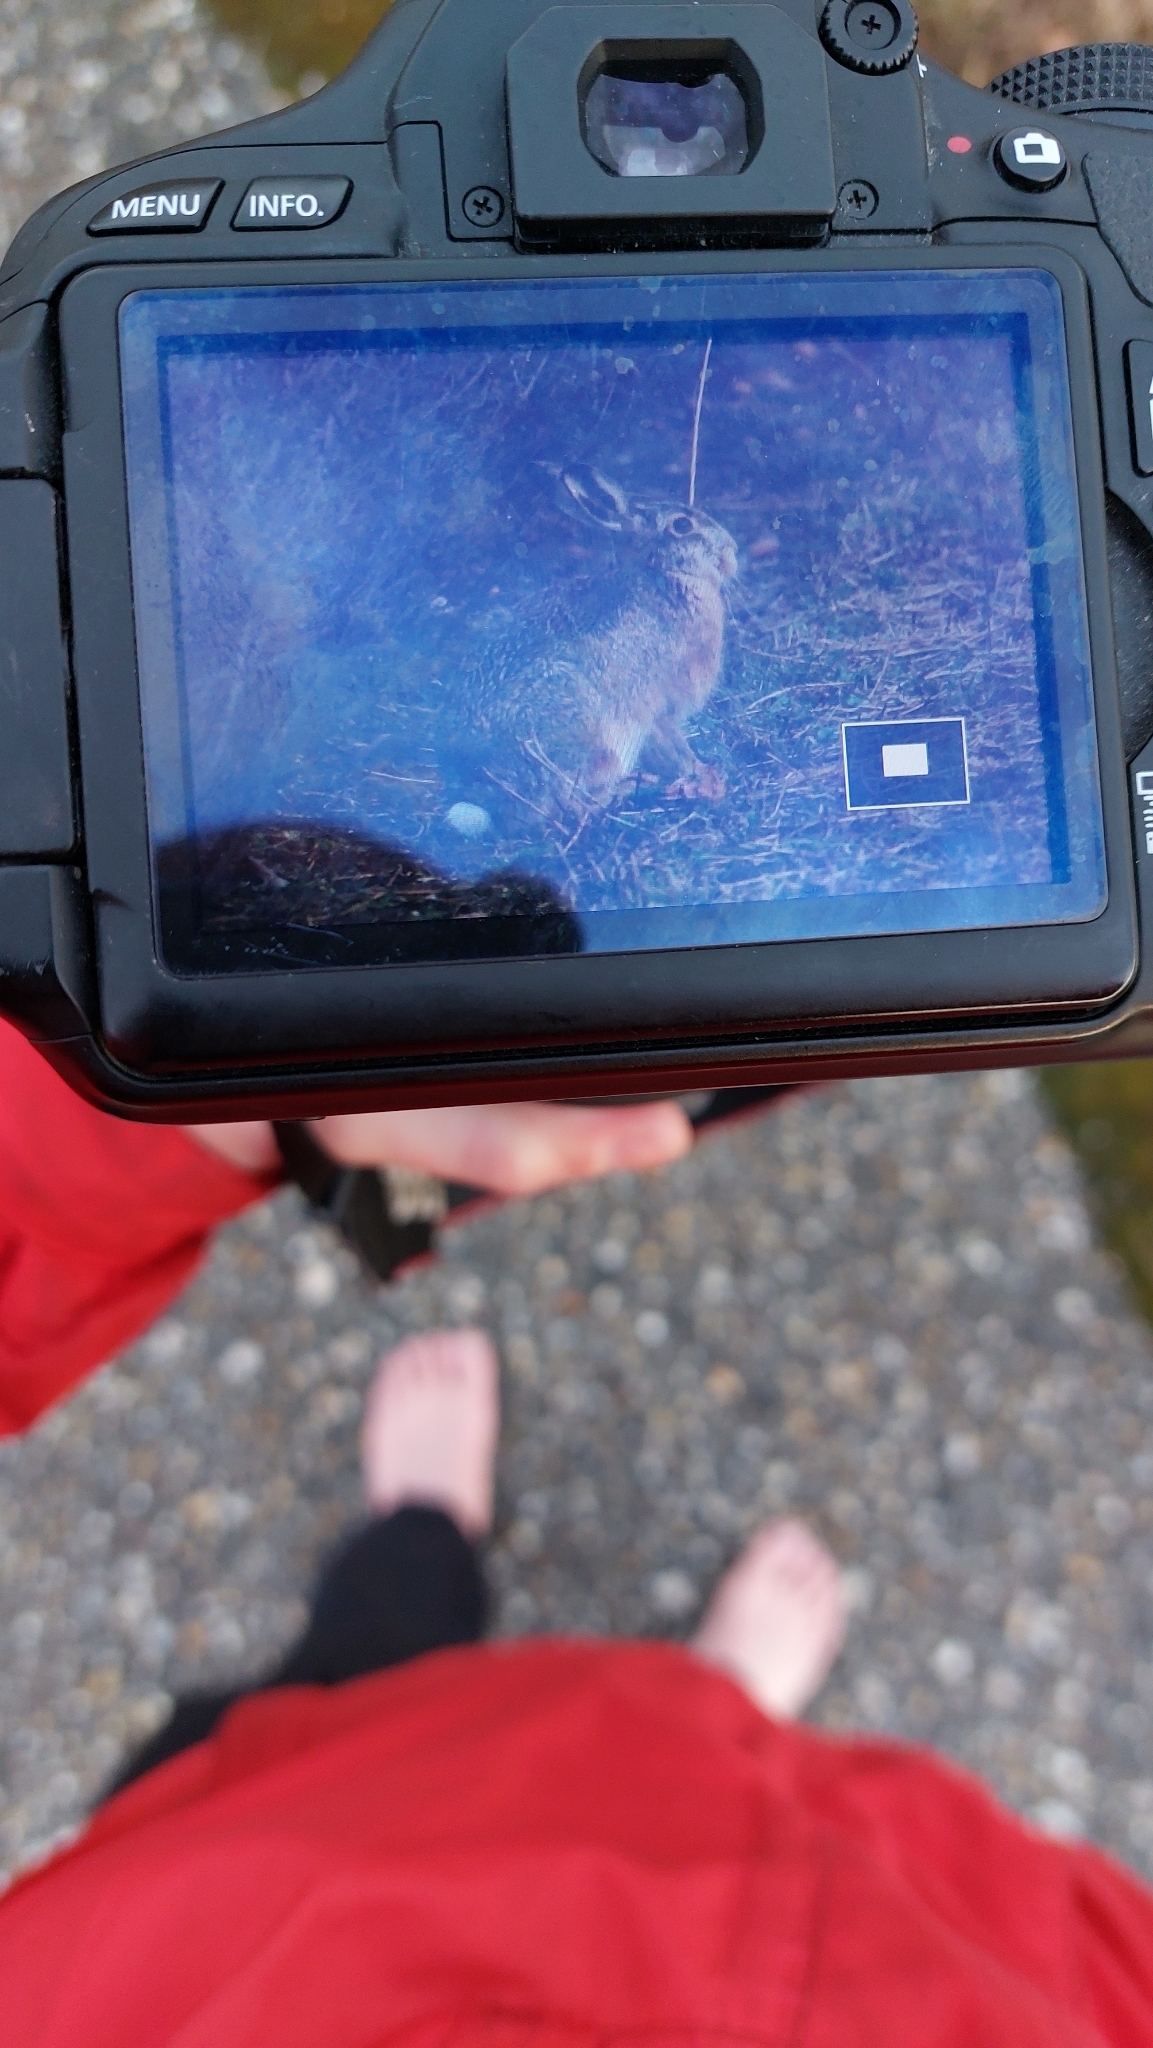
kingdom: Animalia
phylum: Chordata
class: Mammalia
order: Lagomorpha
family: Leporidae
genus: Lepus
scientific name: Lepus europaeus
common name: European hare
